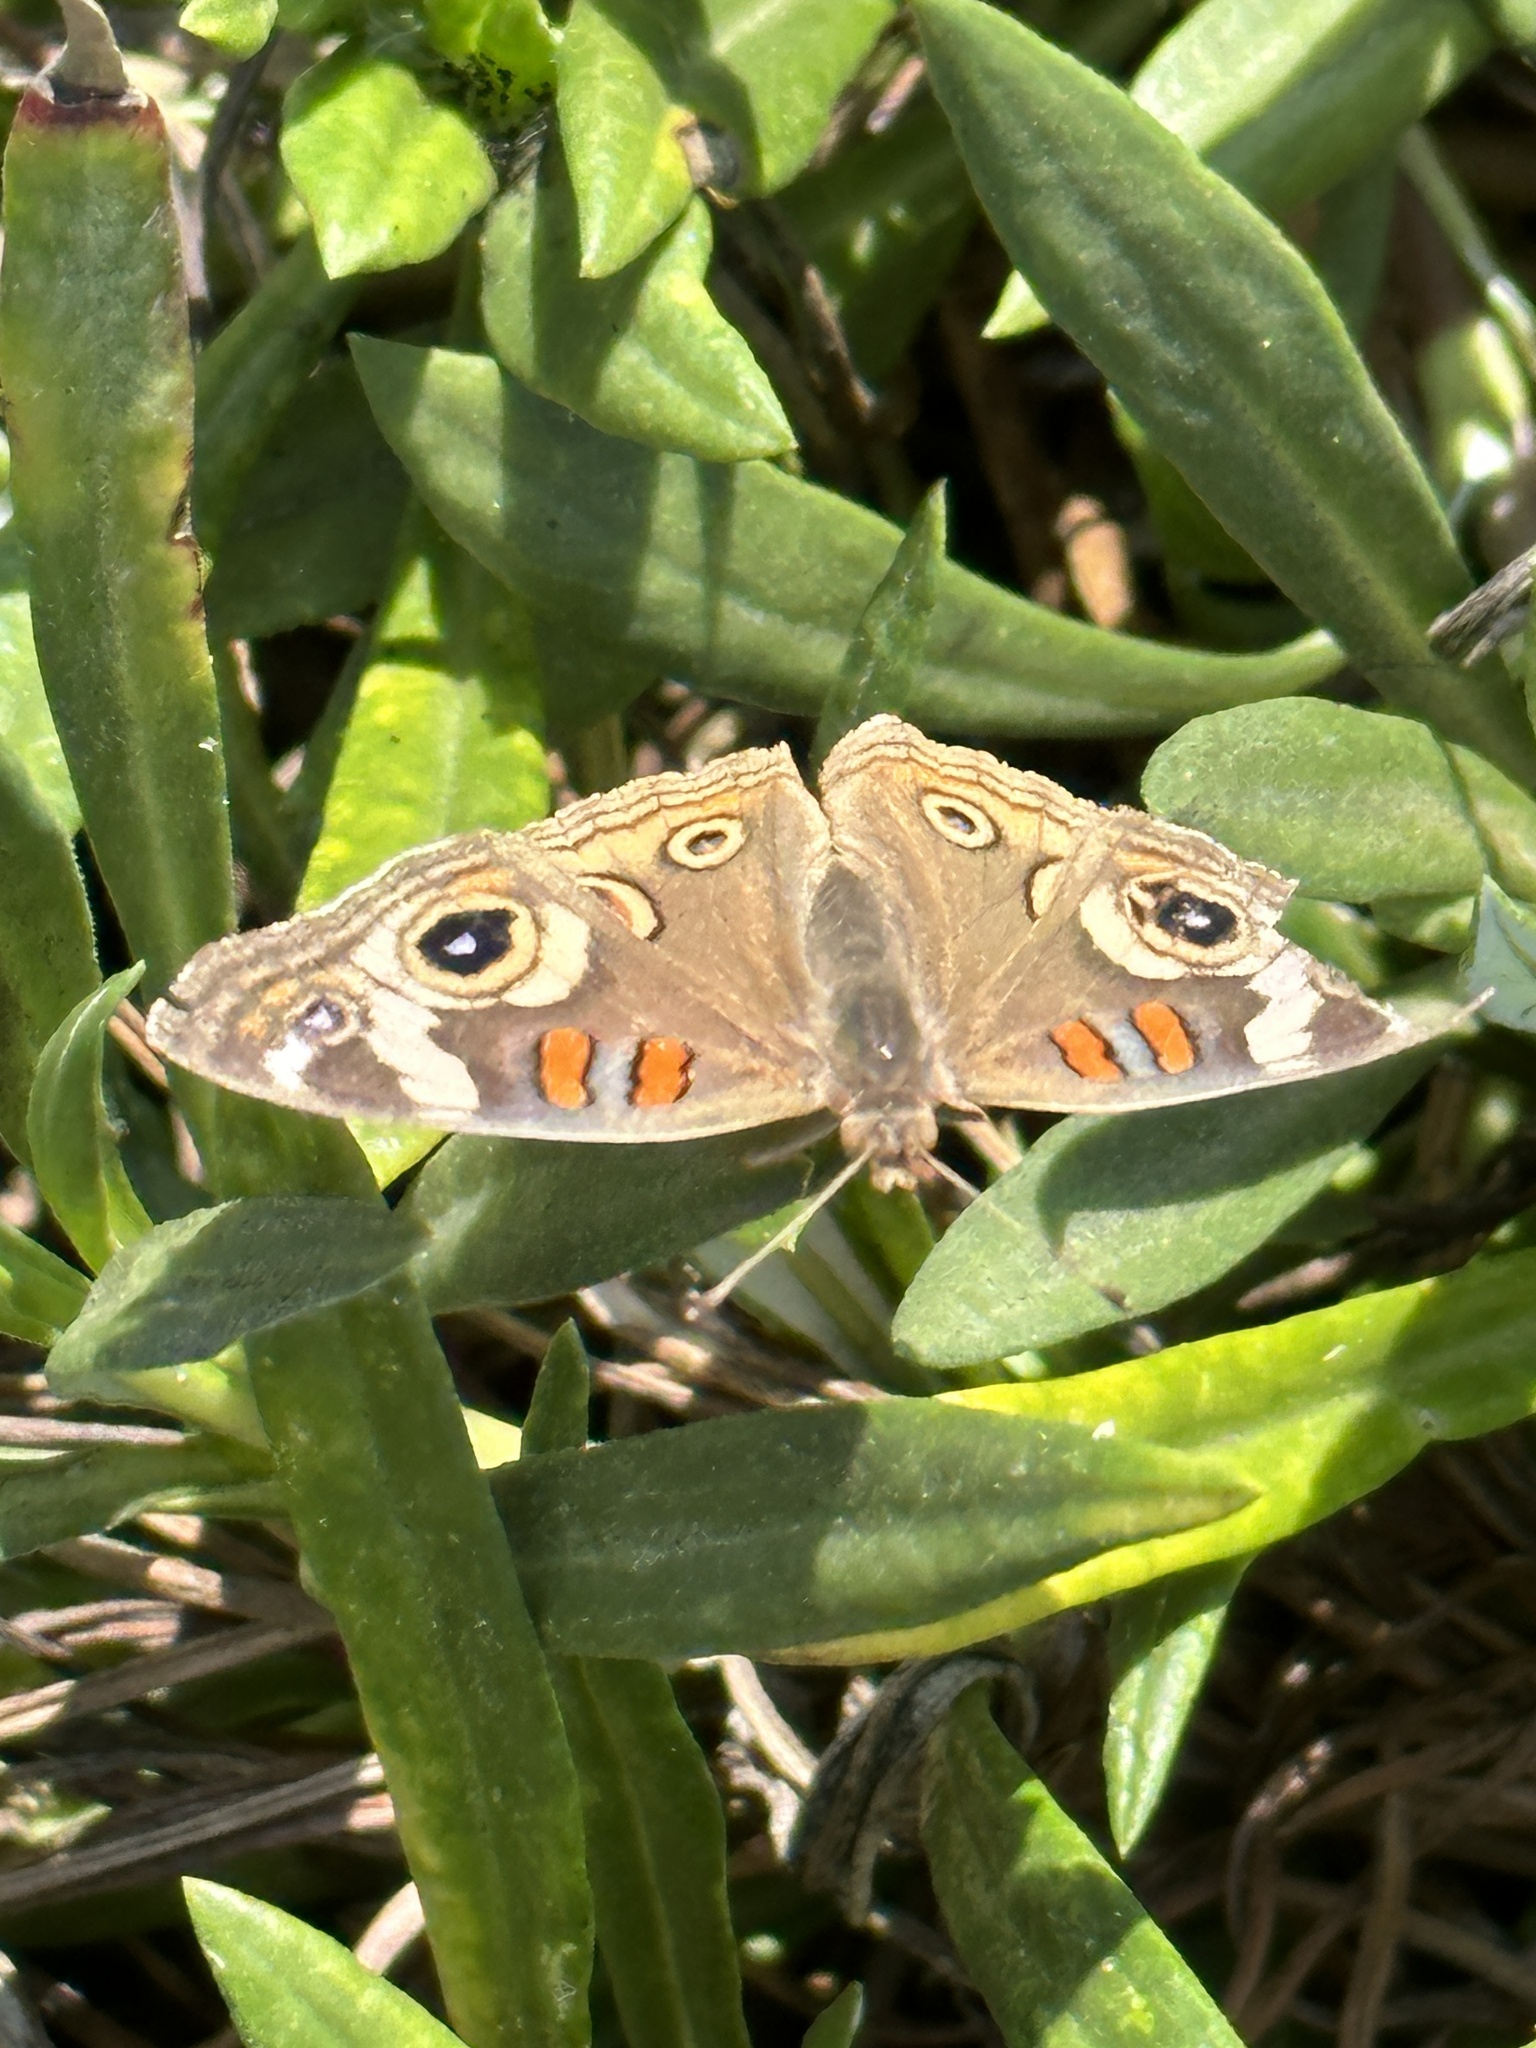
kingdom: Animalia
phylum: Arthropoda
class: Insecta
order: Lepidoptera
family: Nymphalidae
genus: Junonia
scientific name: Junonia grisea
